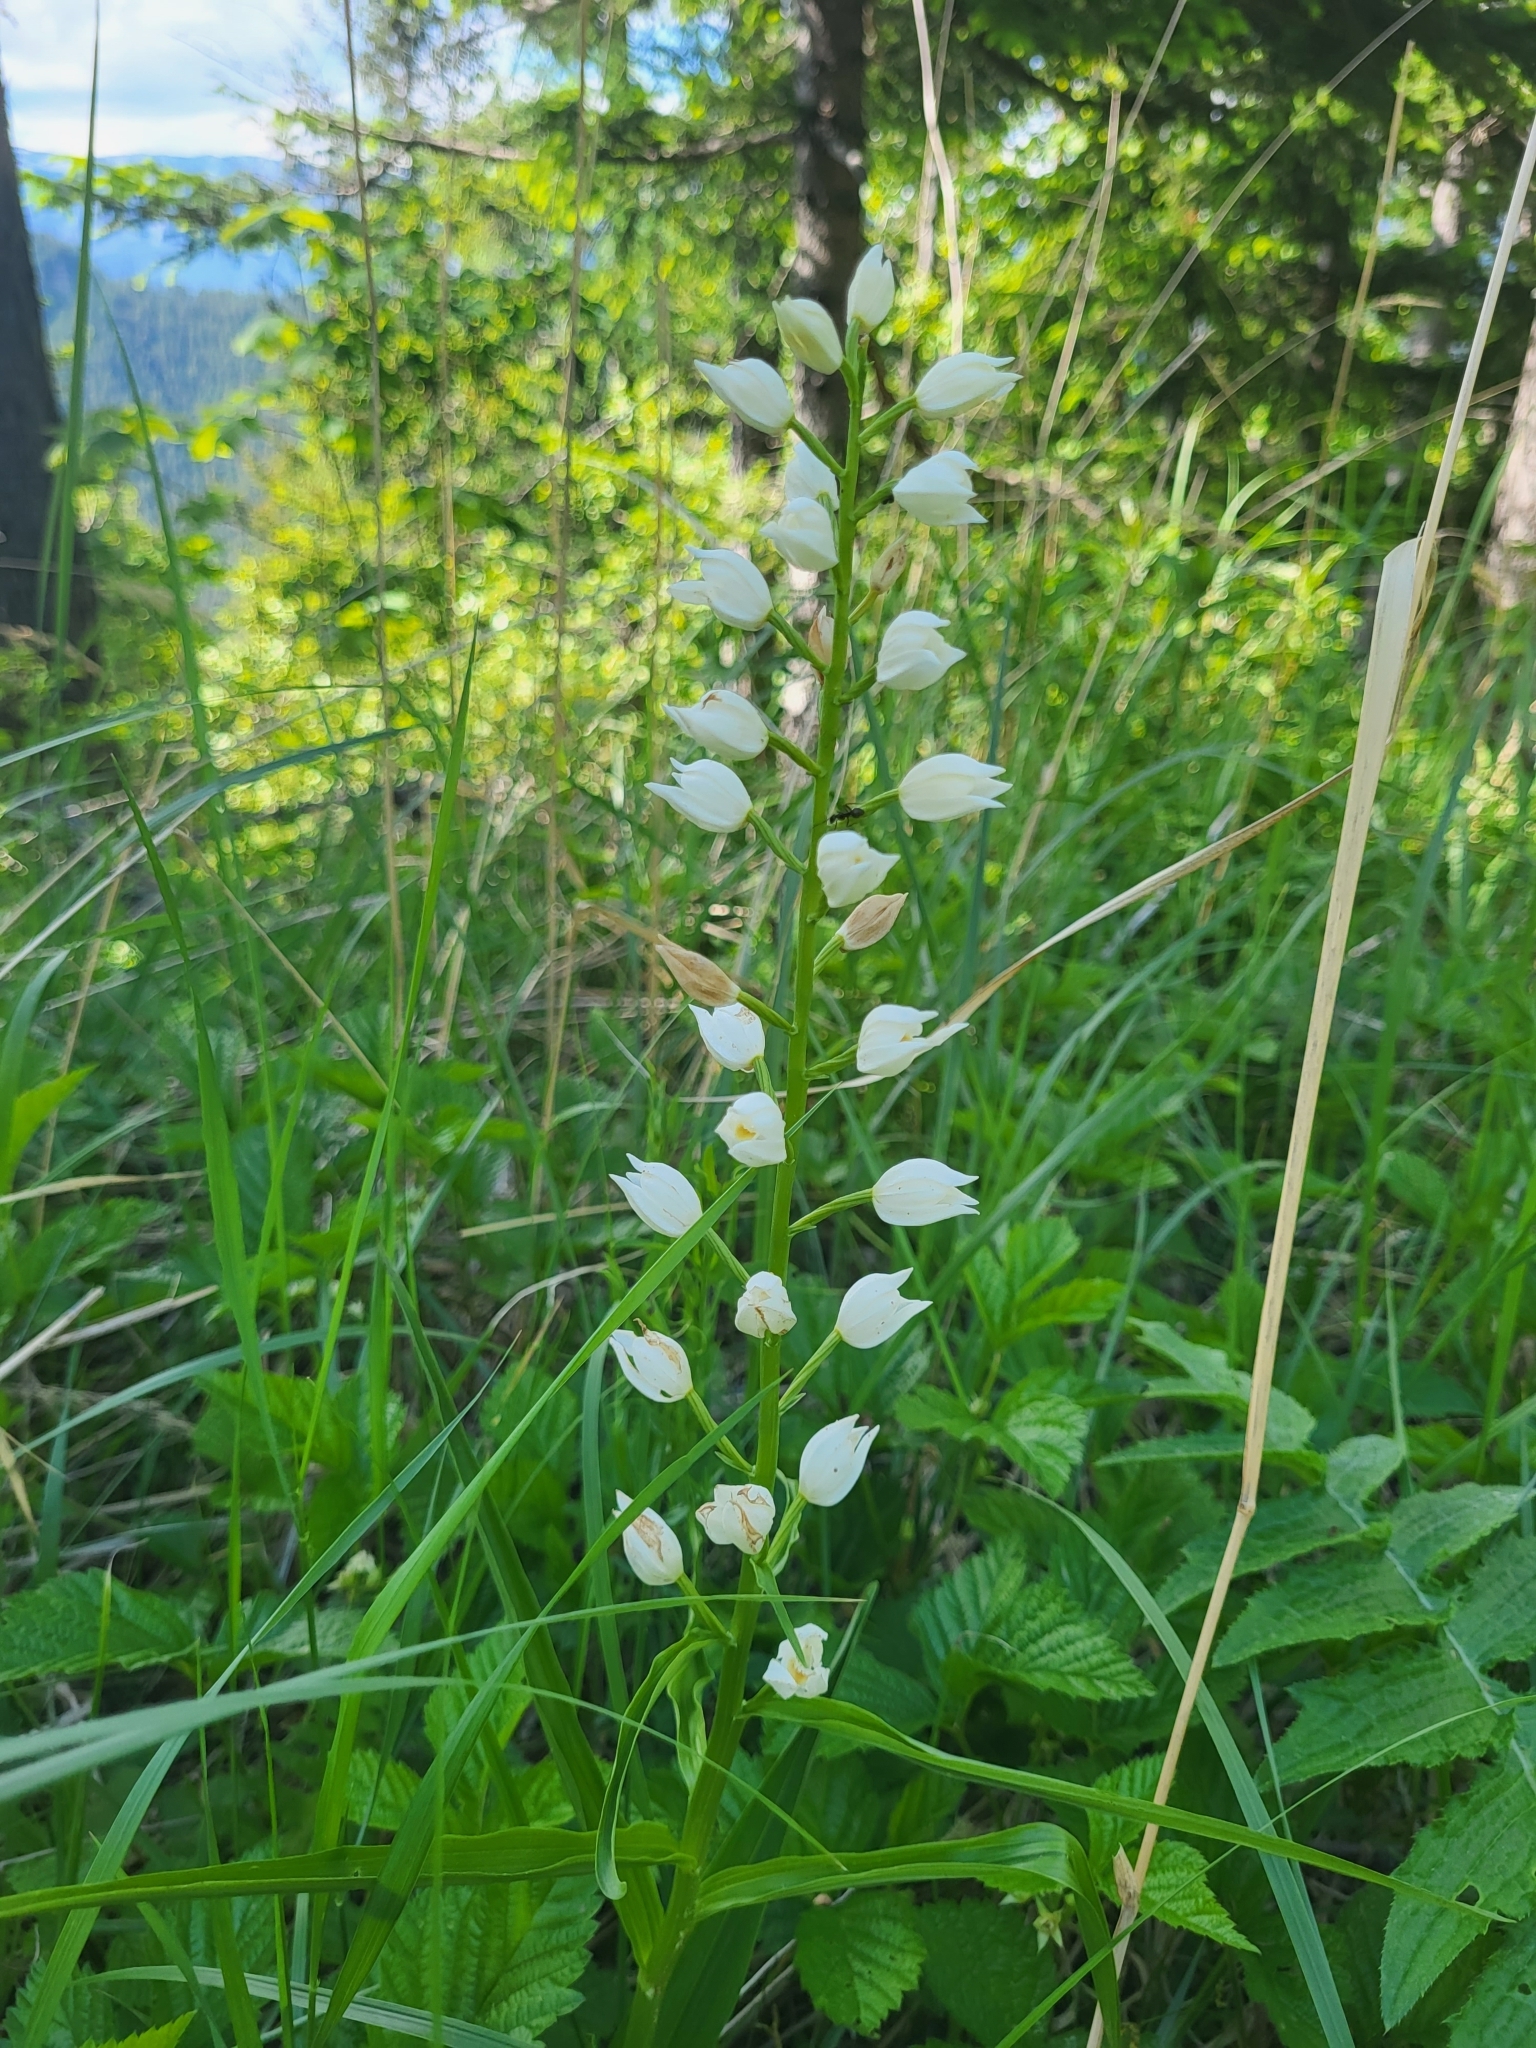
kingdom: Plantae
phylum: Tracheophyta
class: Liliopsida
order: Asparagales
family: Orchidaceae
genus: Cephalanthera
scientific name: Cephalanthera longifolia
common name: Narrow-leaved helleborine
